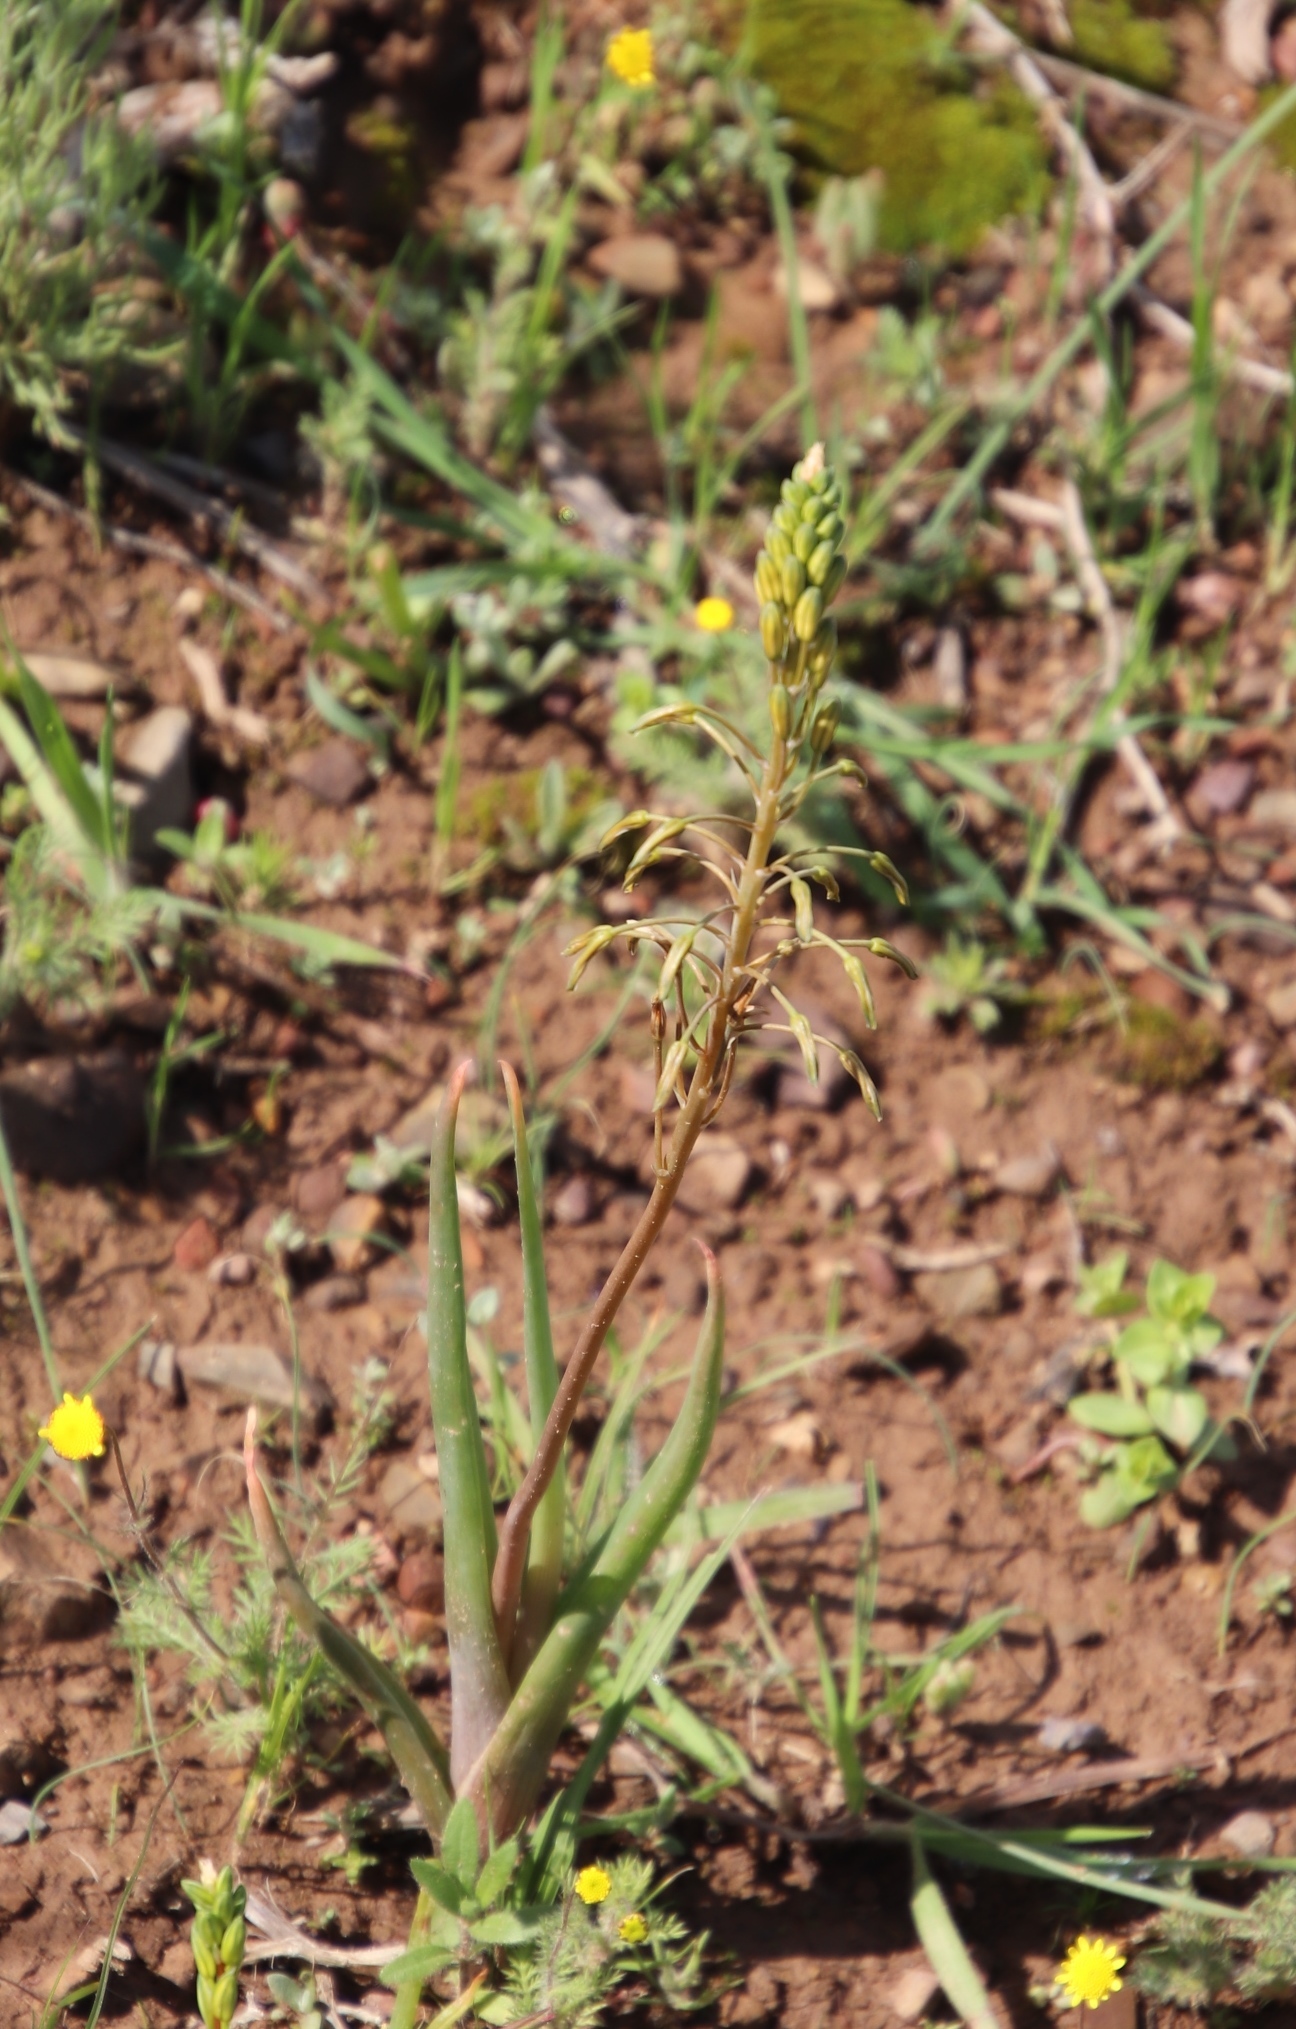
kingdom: Plantae
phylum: Tracheophyta
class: Liliopsida
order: Asparagales
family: Asphodelaceae
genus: Bulbine
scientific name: Bulbine praemorsa
